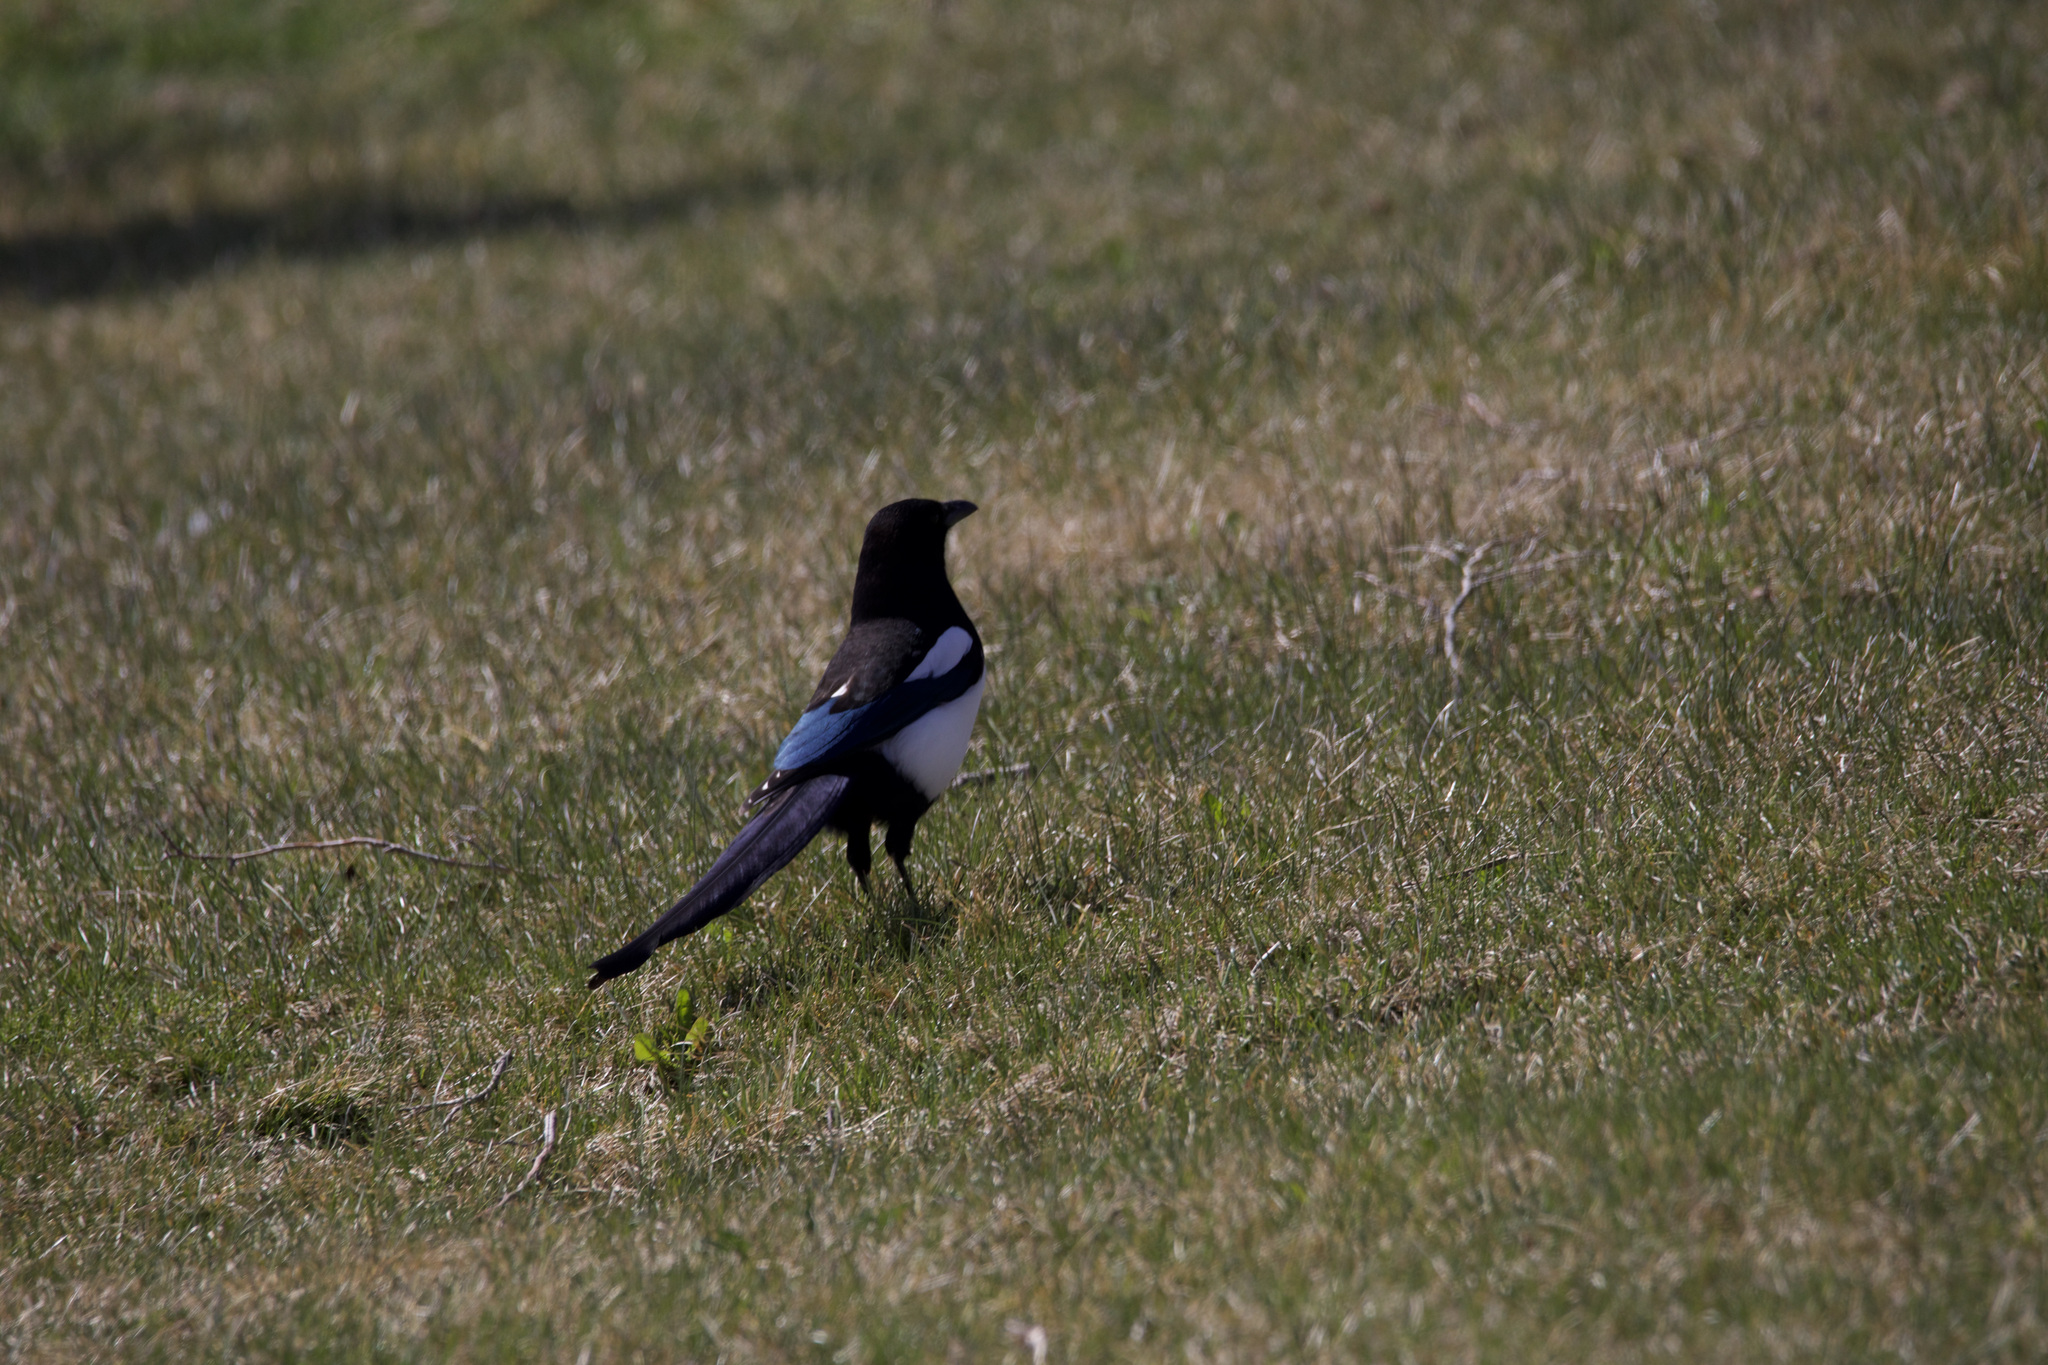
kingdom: Animalia
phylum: Chordata
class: Aves
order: Passeriformes
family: Corvidae
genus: Pica
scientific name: Pica hudsonia
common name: Black-billed magpie
